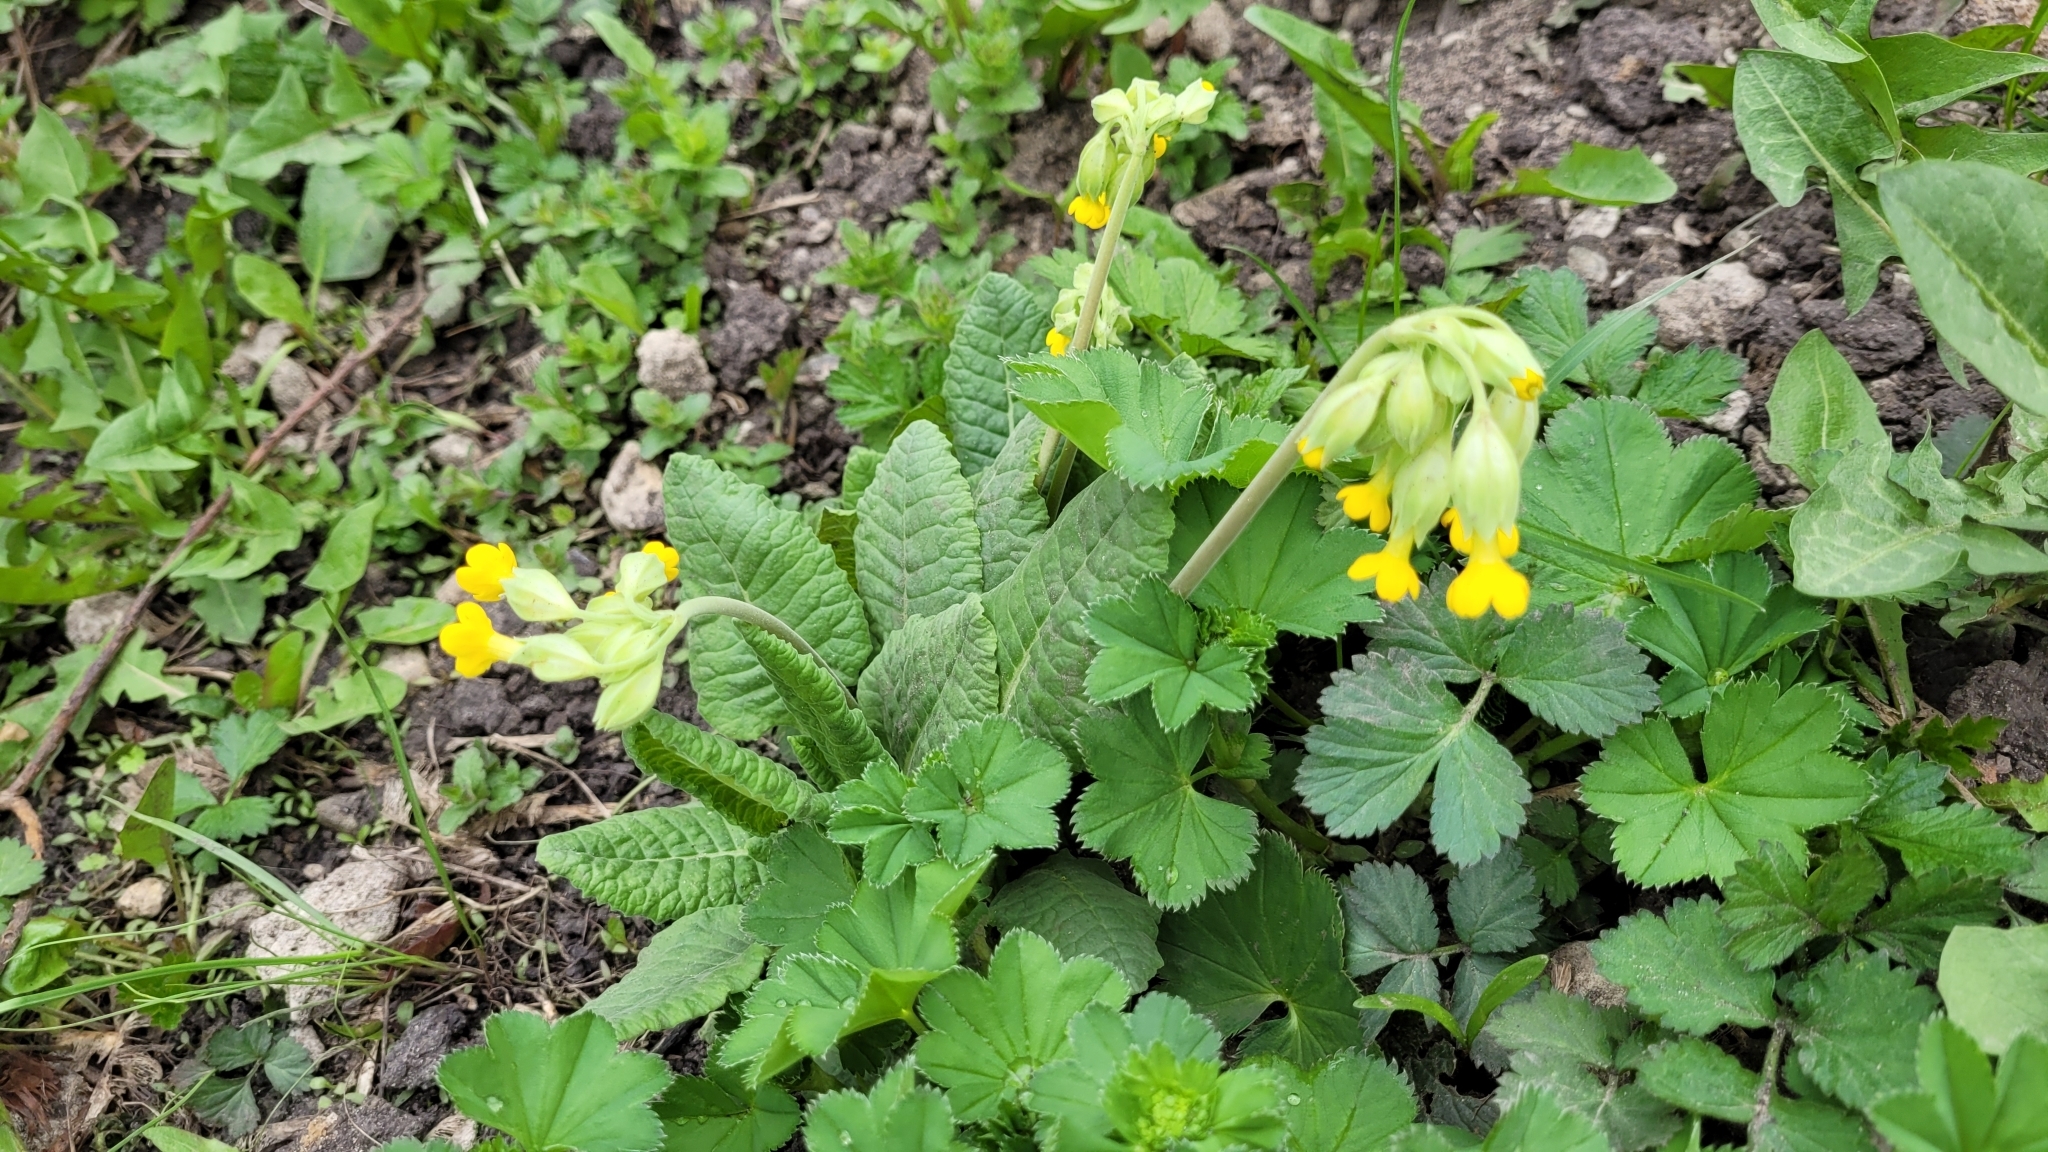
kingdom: Plantae
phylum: Tracheophyta
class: Magnoliopsida
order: Ericales
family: Primulaceae
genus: Primula
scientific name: Primula veris
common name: Cowslip
